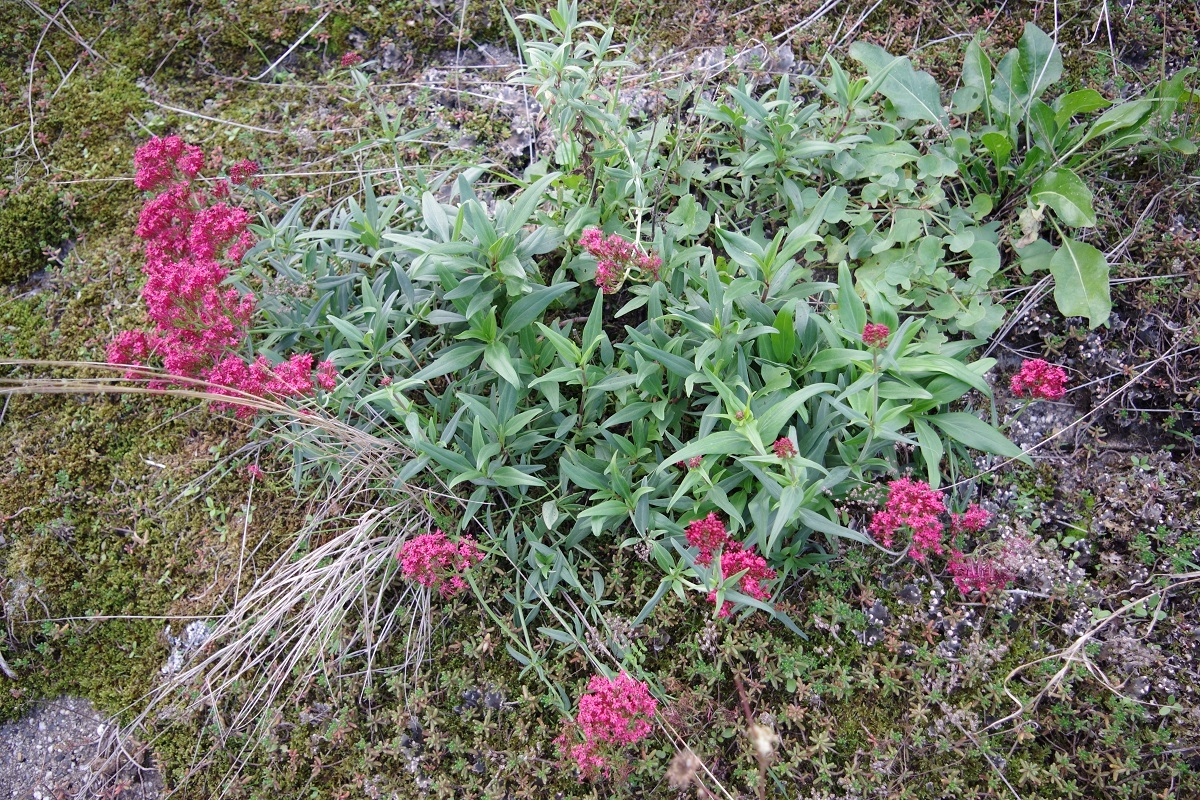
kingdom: Plantae
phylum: Tracheophyta
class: Magnoliopsida
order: Dipsacales
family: Caprifoliaceae
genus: Centranthus
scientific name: Centranthus ruber
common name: Red valerian
